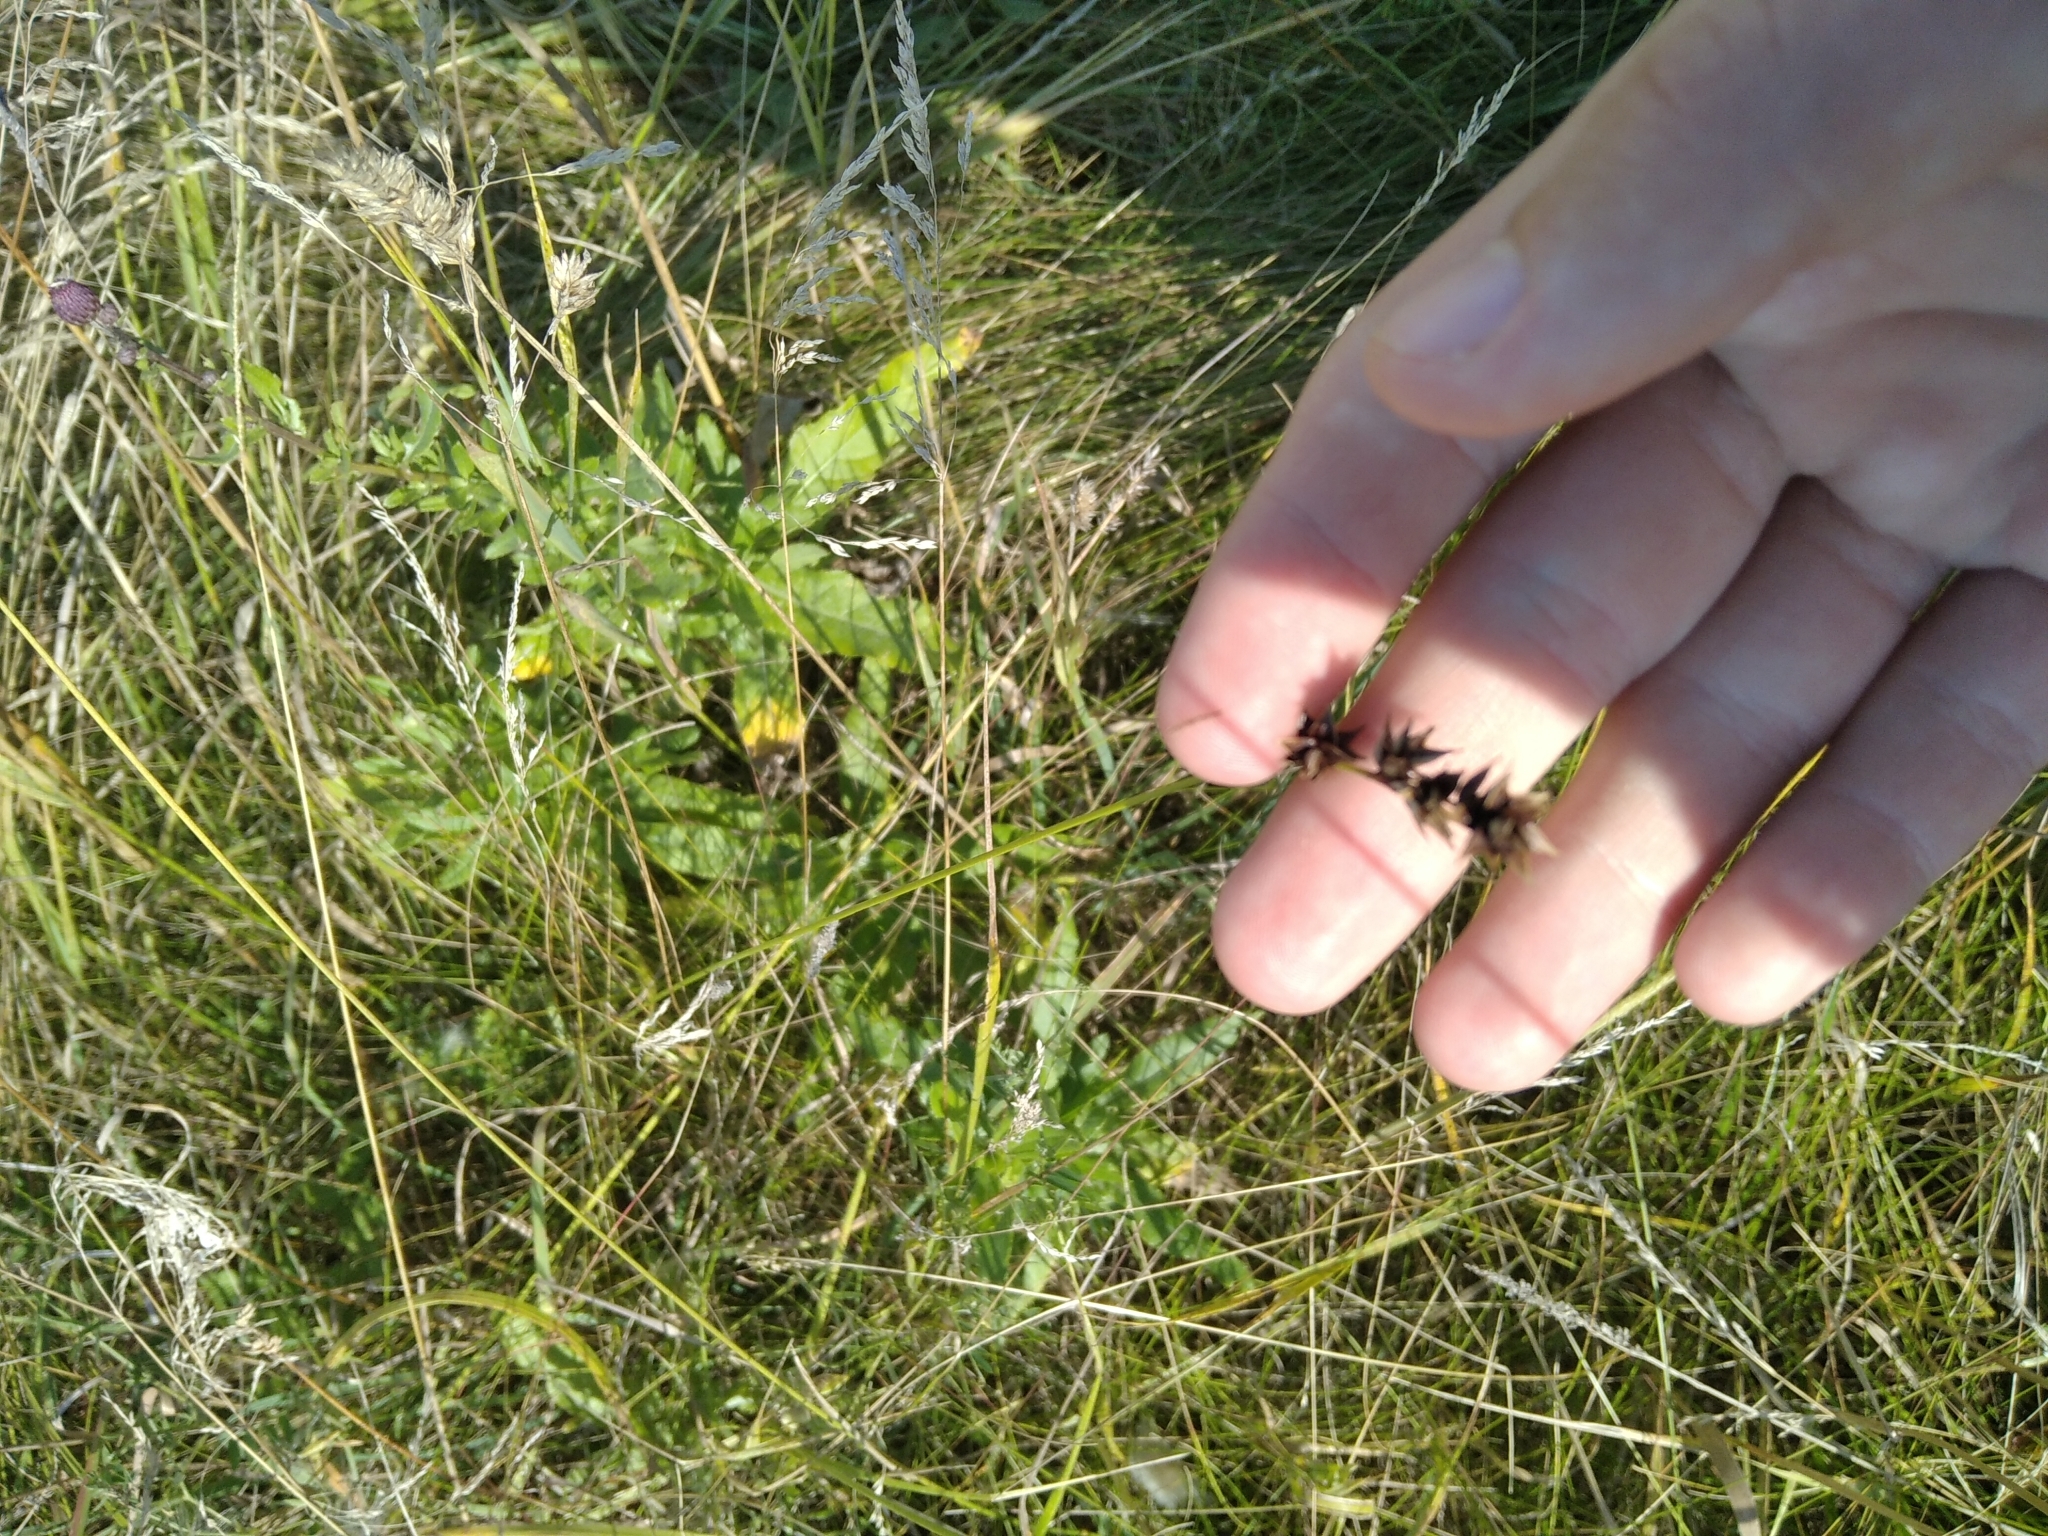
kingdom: Plantae
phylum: Tracheophyta
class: Liliopsida
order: Poales
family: Cyperaceae
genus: Carex
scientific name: Carex spicata
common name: Spiked sedge
